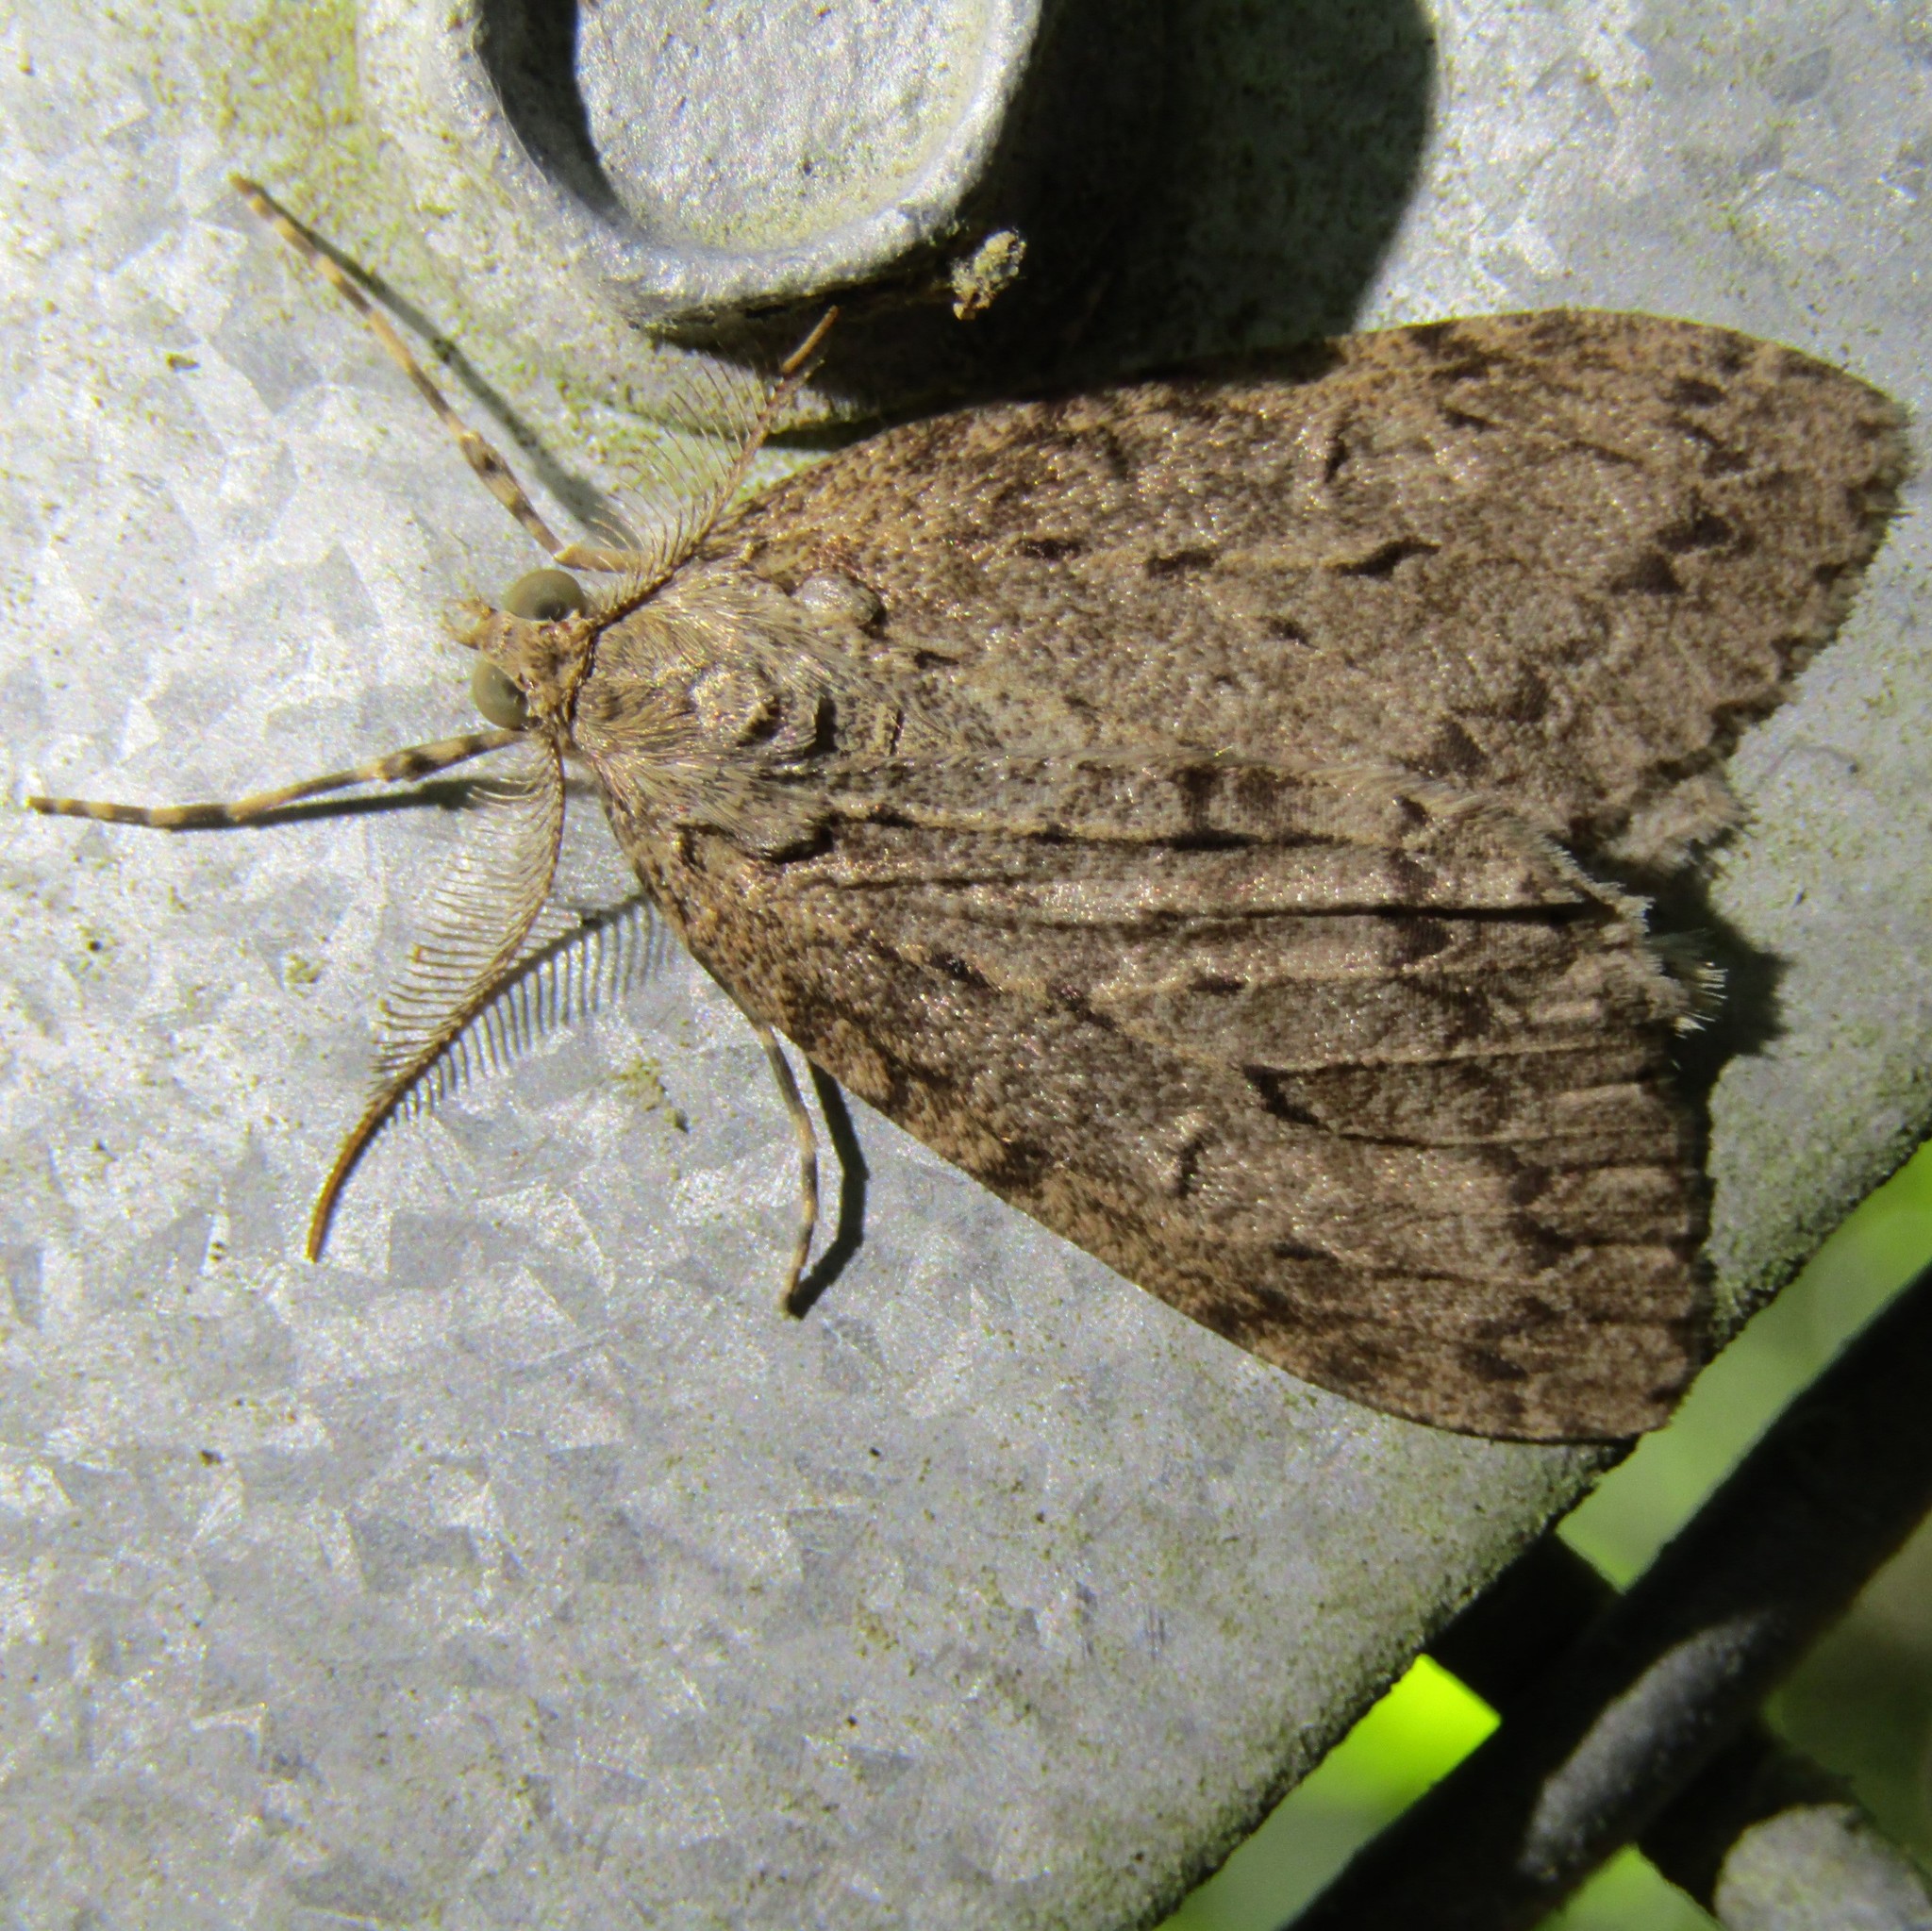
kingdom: Animalia
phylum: Arthropoda
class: Insecta
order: Lepidoptera
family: Geometridae
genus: Pseudocoremia
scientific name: Pseudocoremia fenerata
